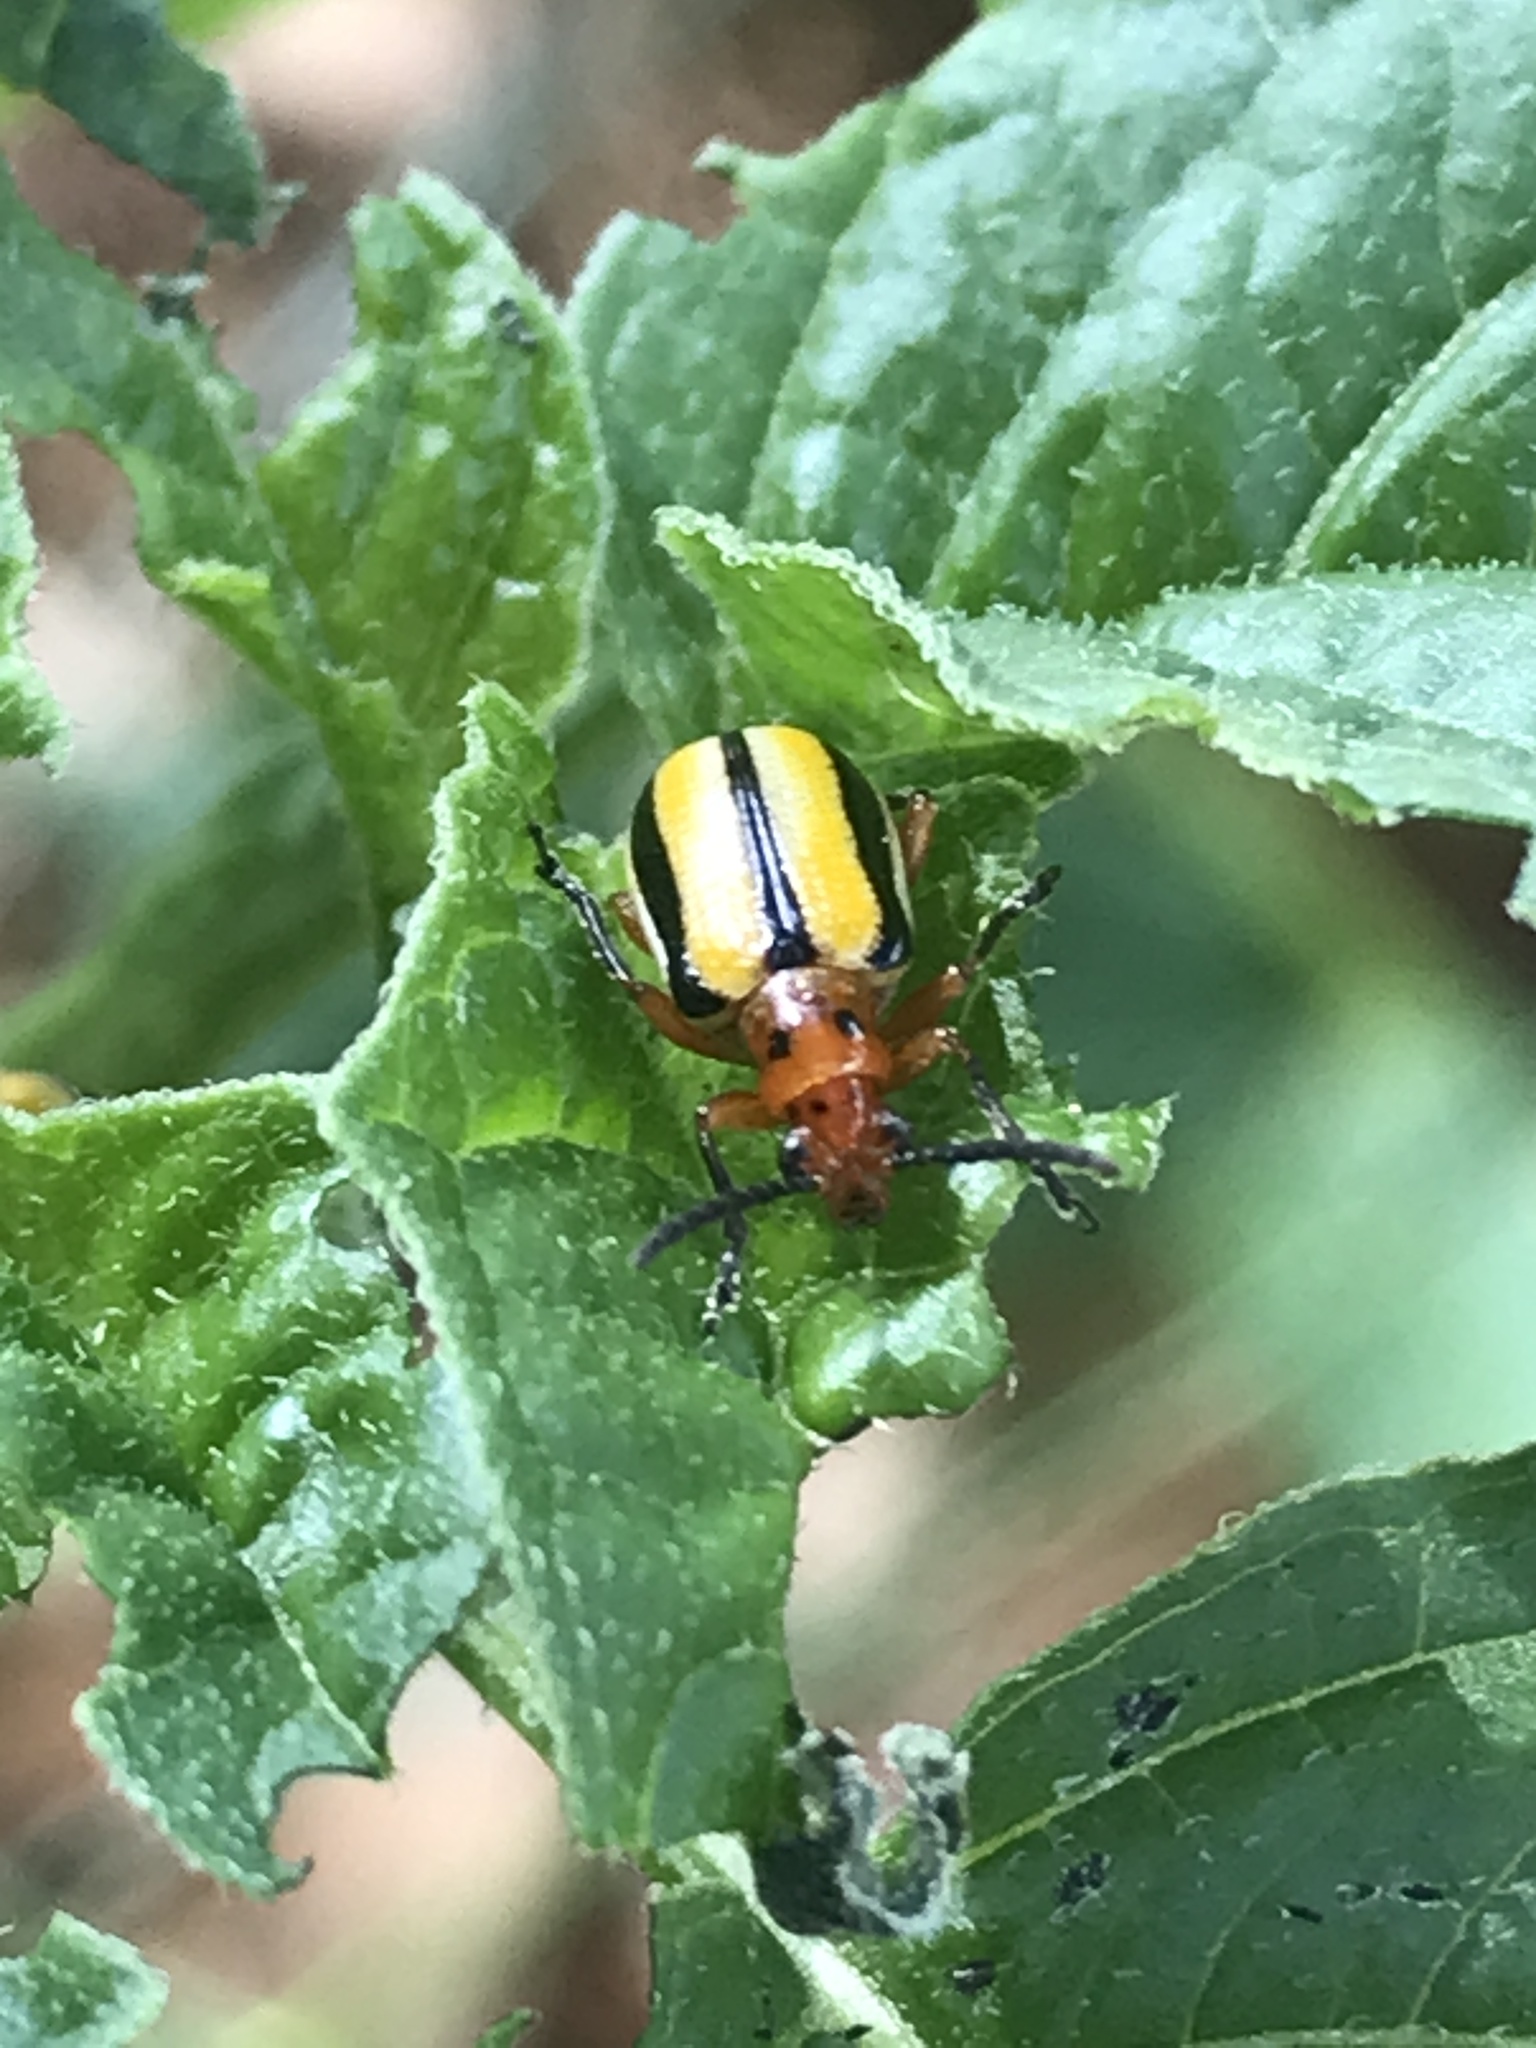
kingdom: Animalia
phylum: Arthropoda
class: Insecta
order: Coleoptera
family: Chrysomelidae
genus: Lema
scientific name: Lema daturaphila
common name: Leaf beetle
